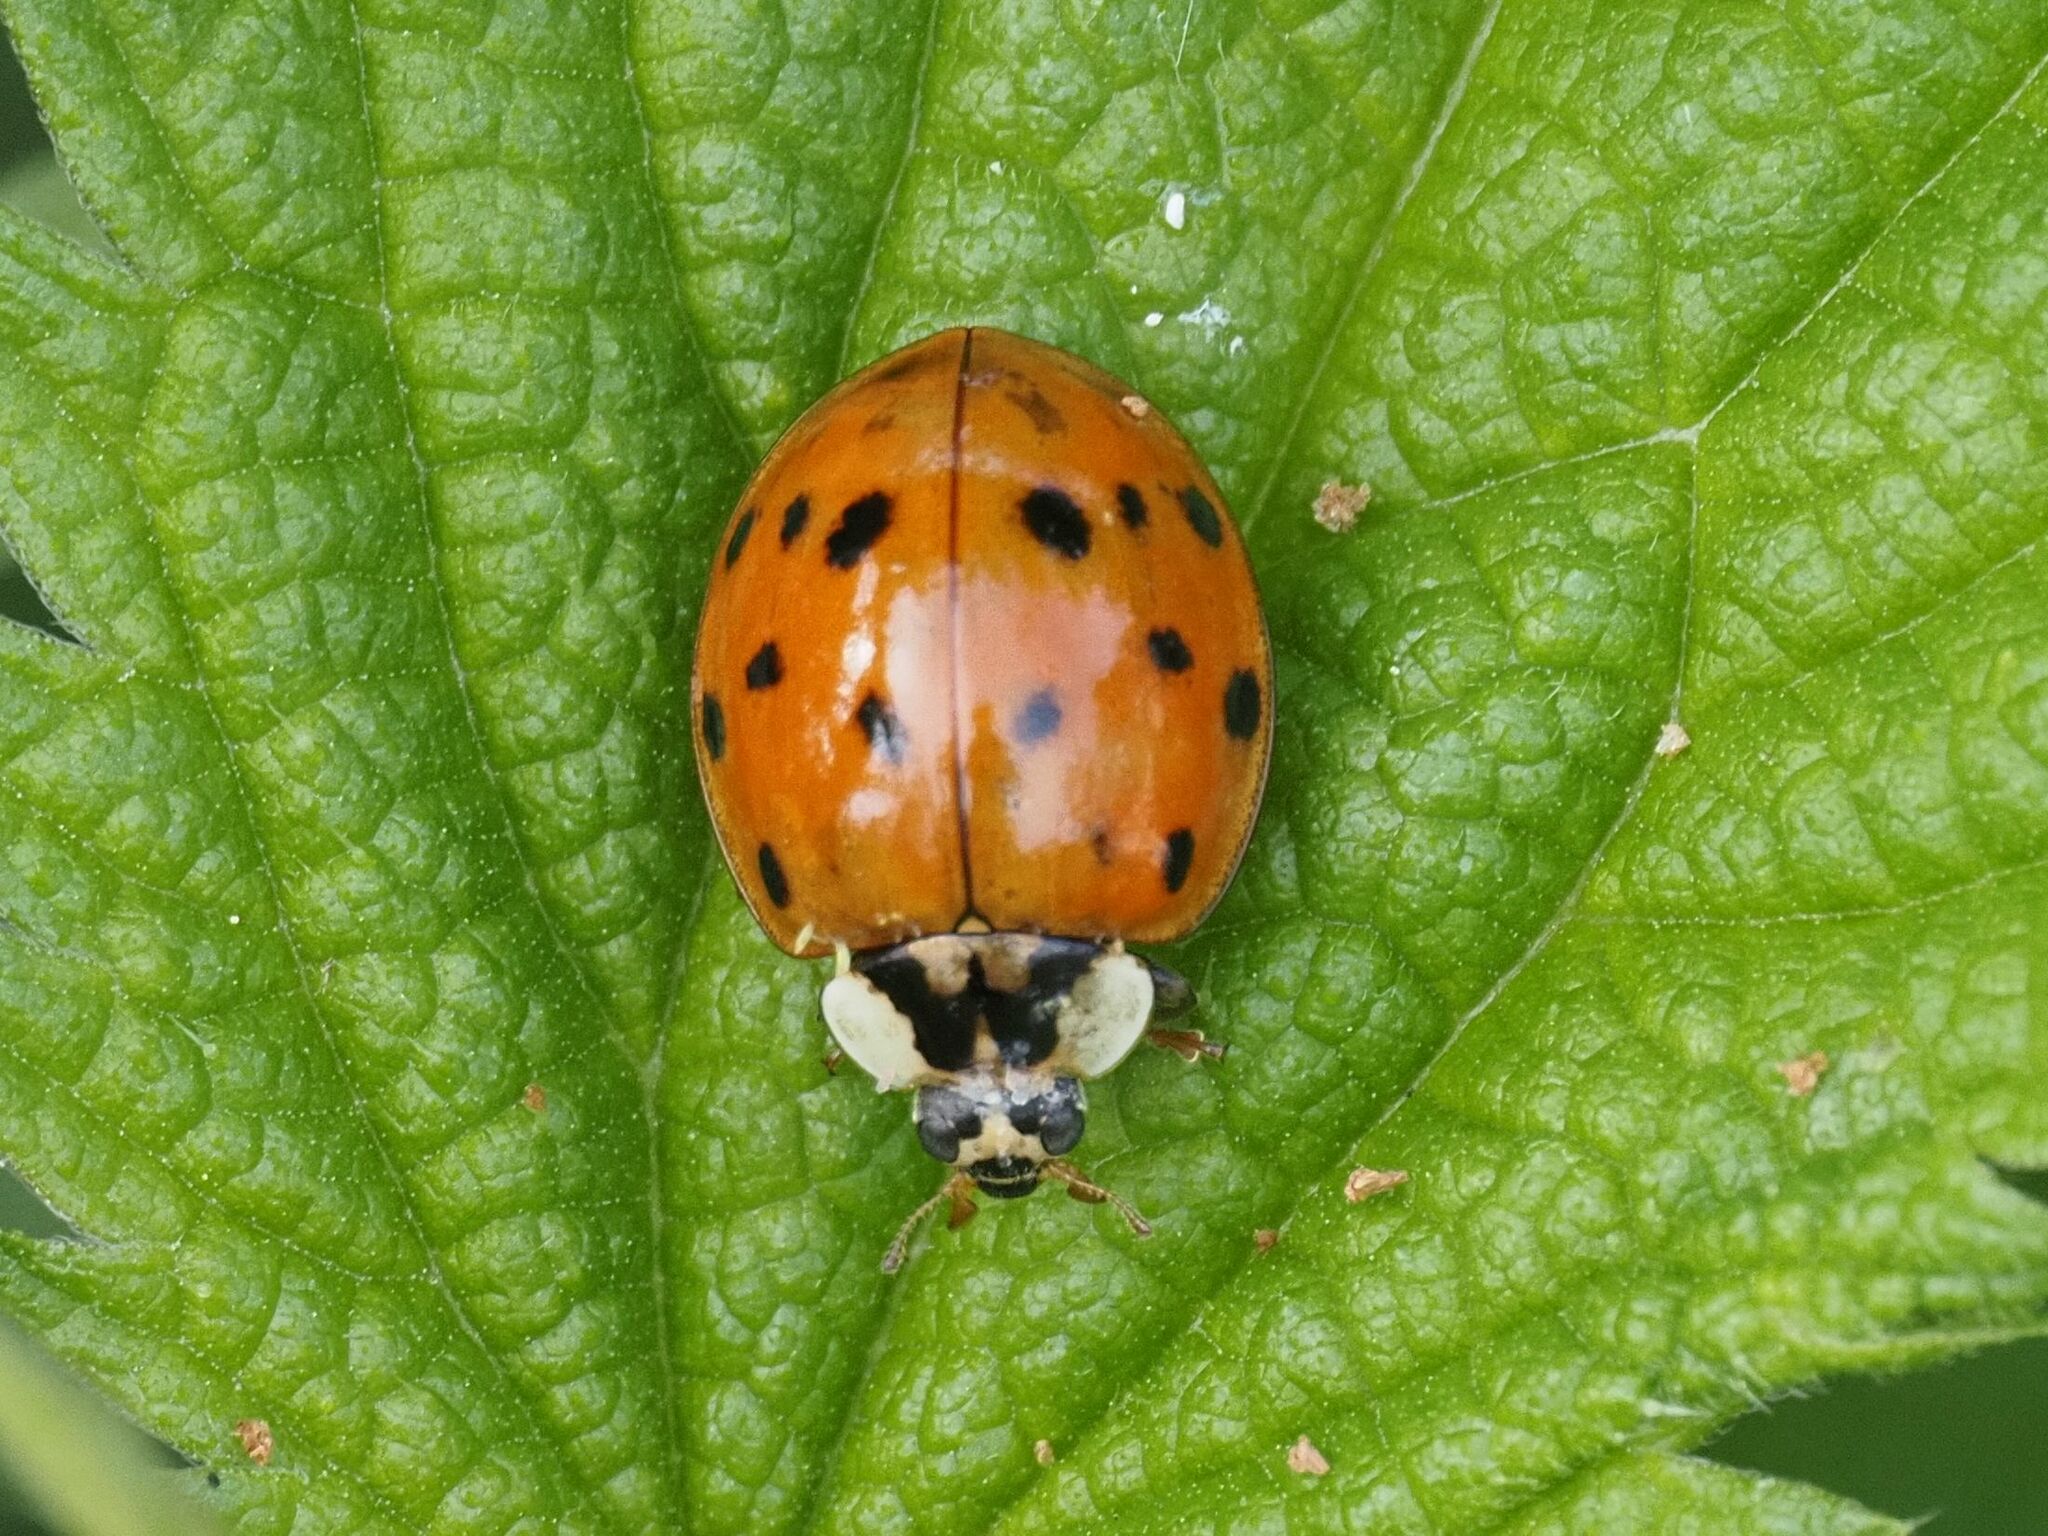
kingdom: Animalia
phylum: Arthropoda
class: Insecta
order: Coleoptera
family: Coccinellidae
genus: Harmonia
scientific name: Harmonia axyridis
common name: Harlequin ladybird
